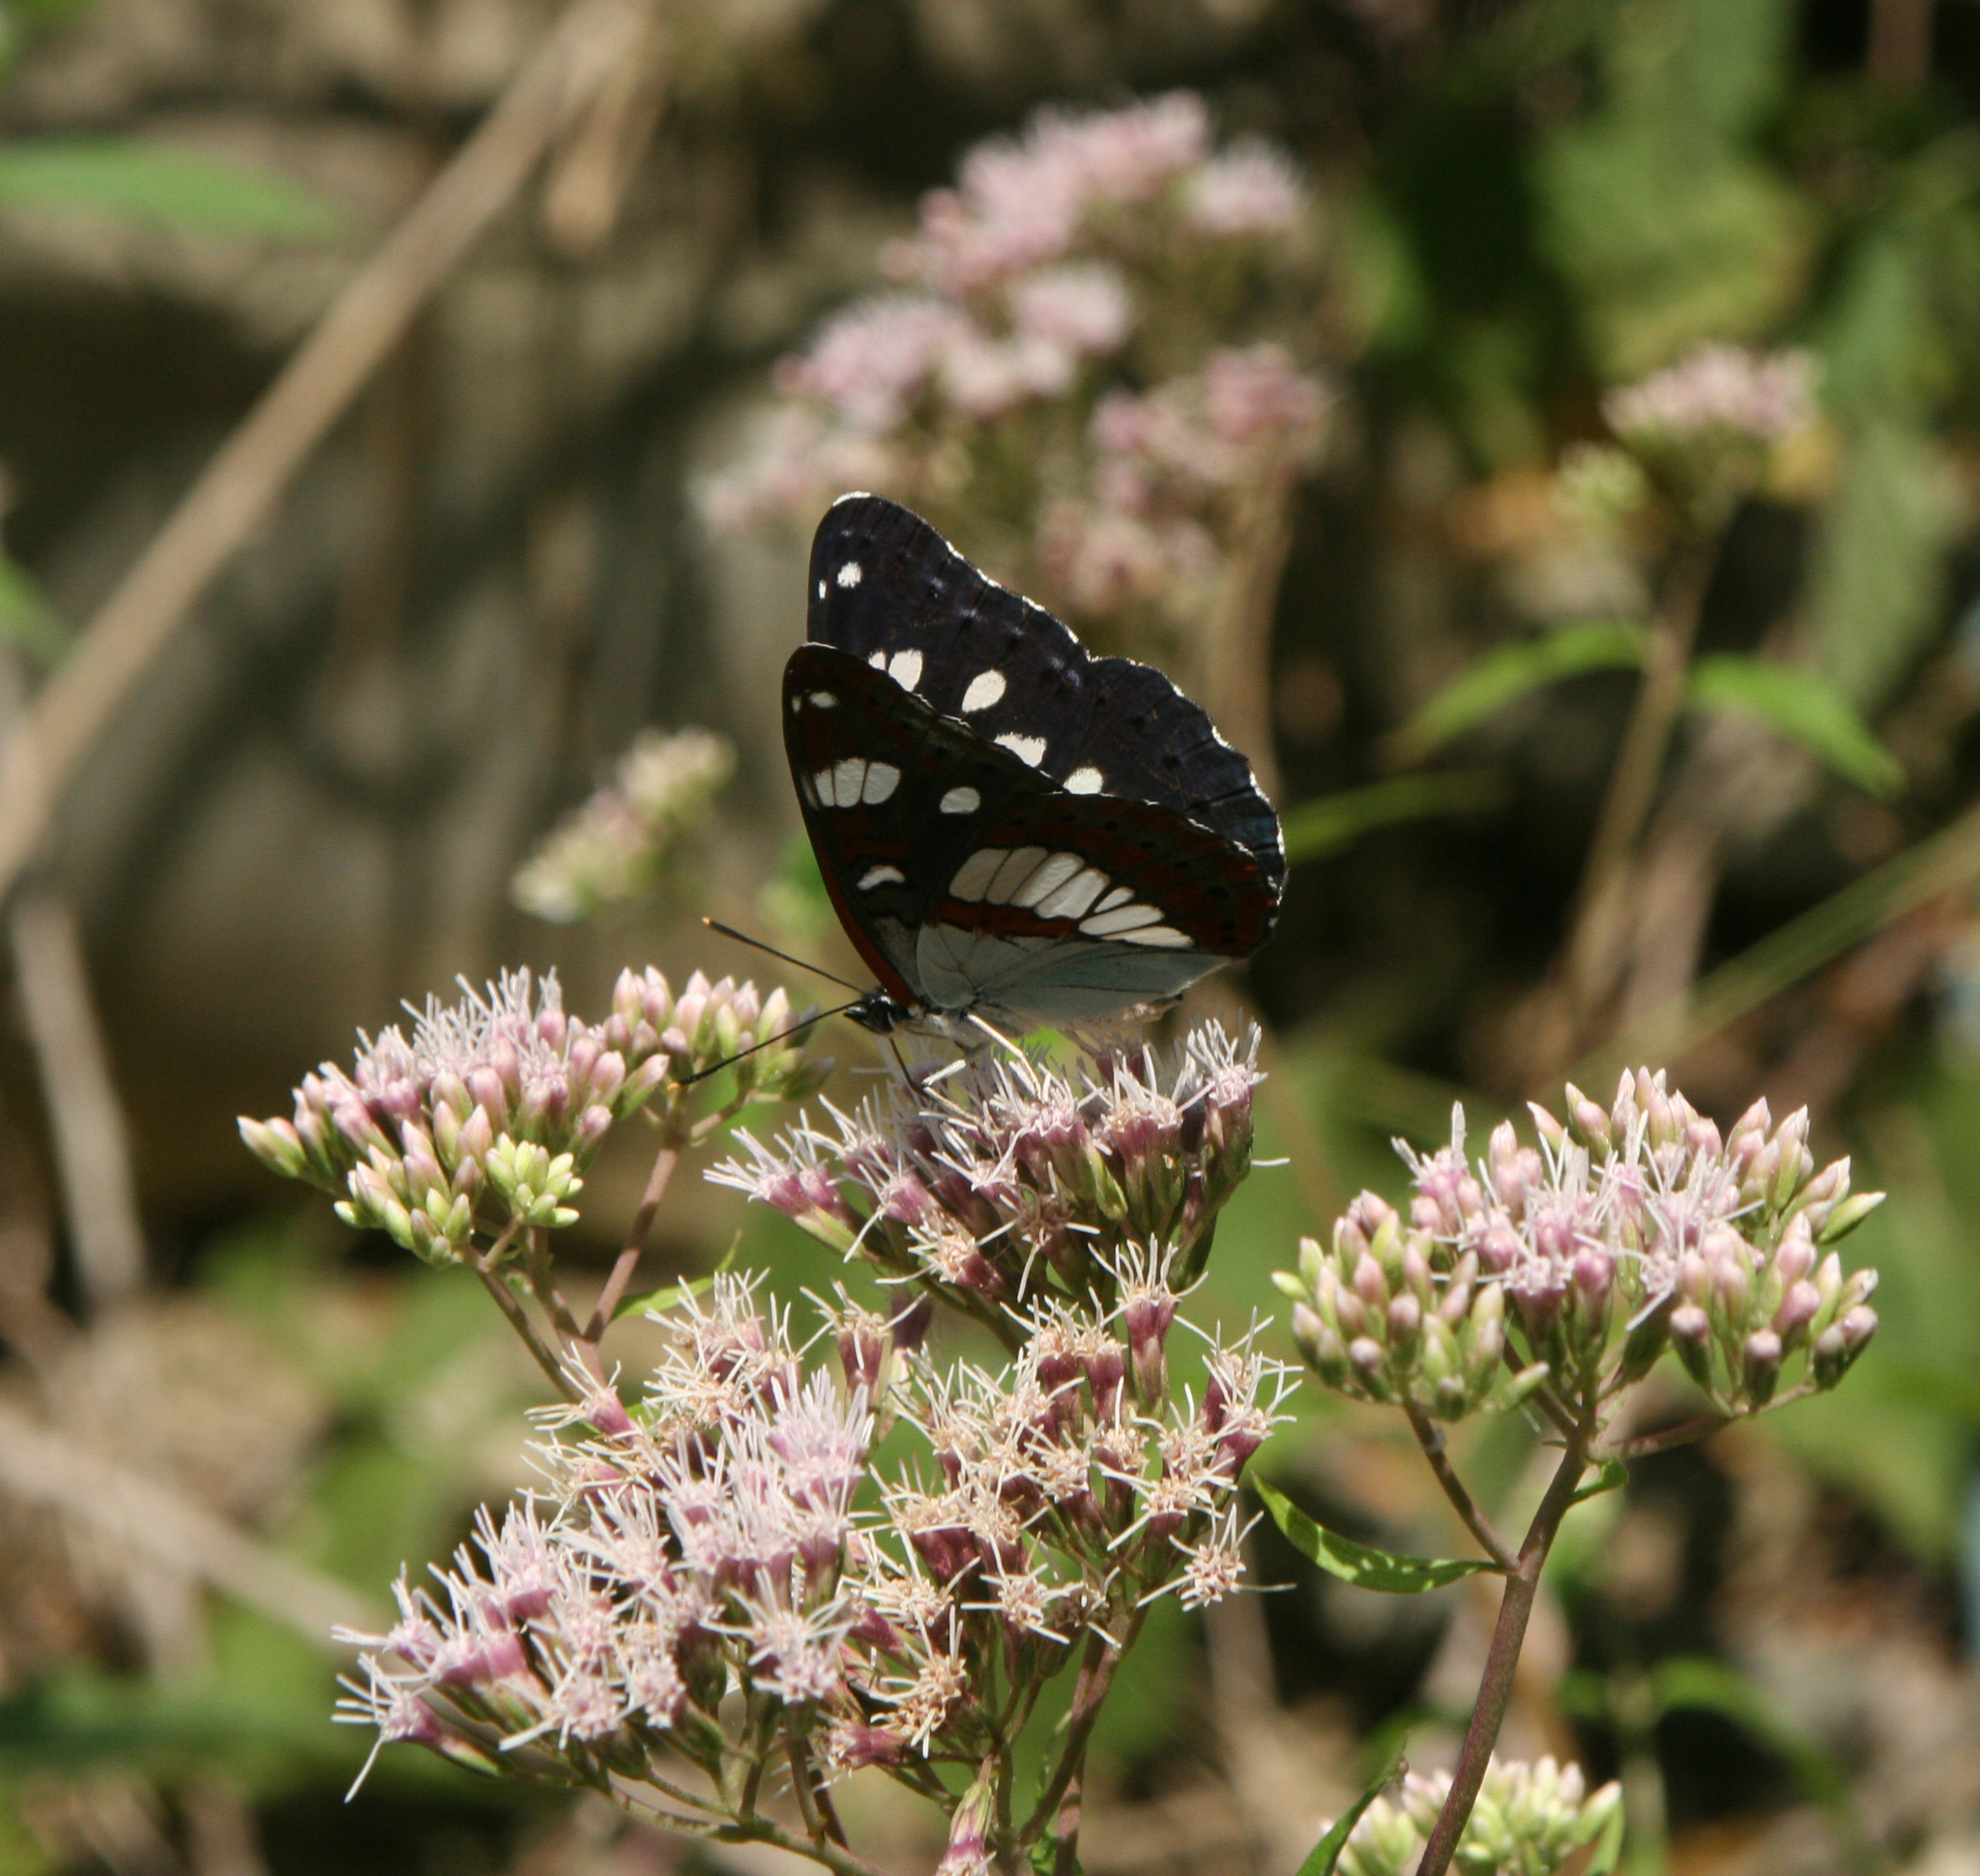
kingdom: Animalia
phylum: Arthropoda
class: Insecta
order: Lepidoptera
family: Nymphalidae
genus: Limenitis
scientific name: Limenitis reducta
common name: Southern white admiral
